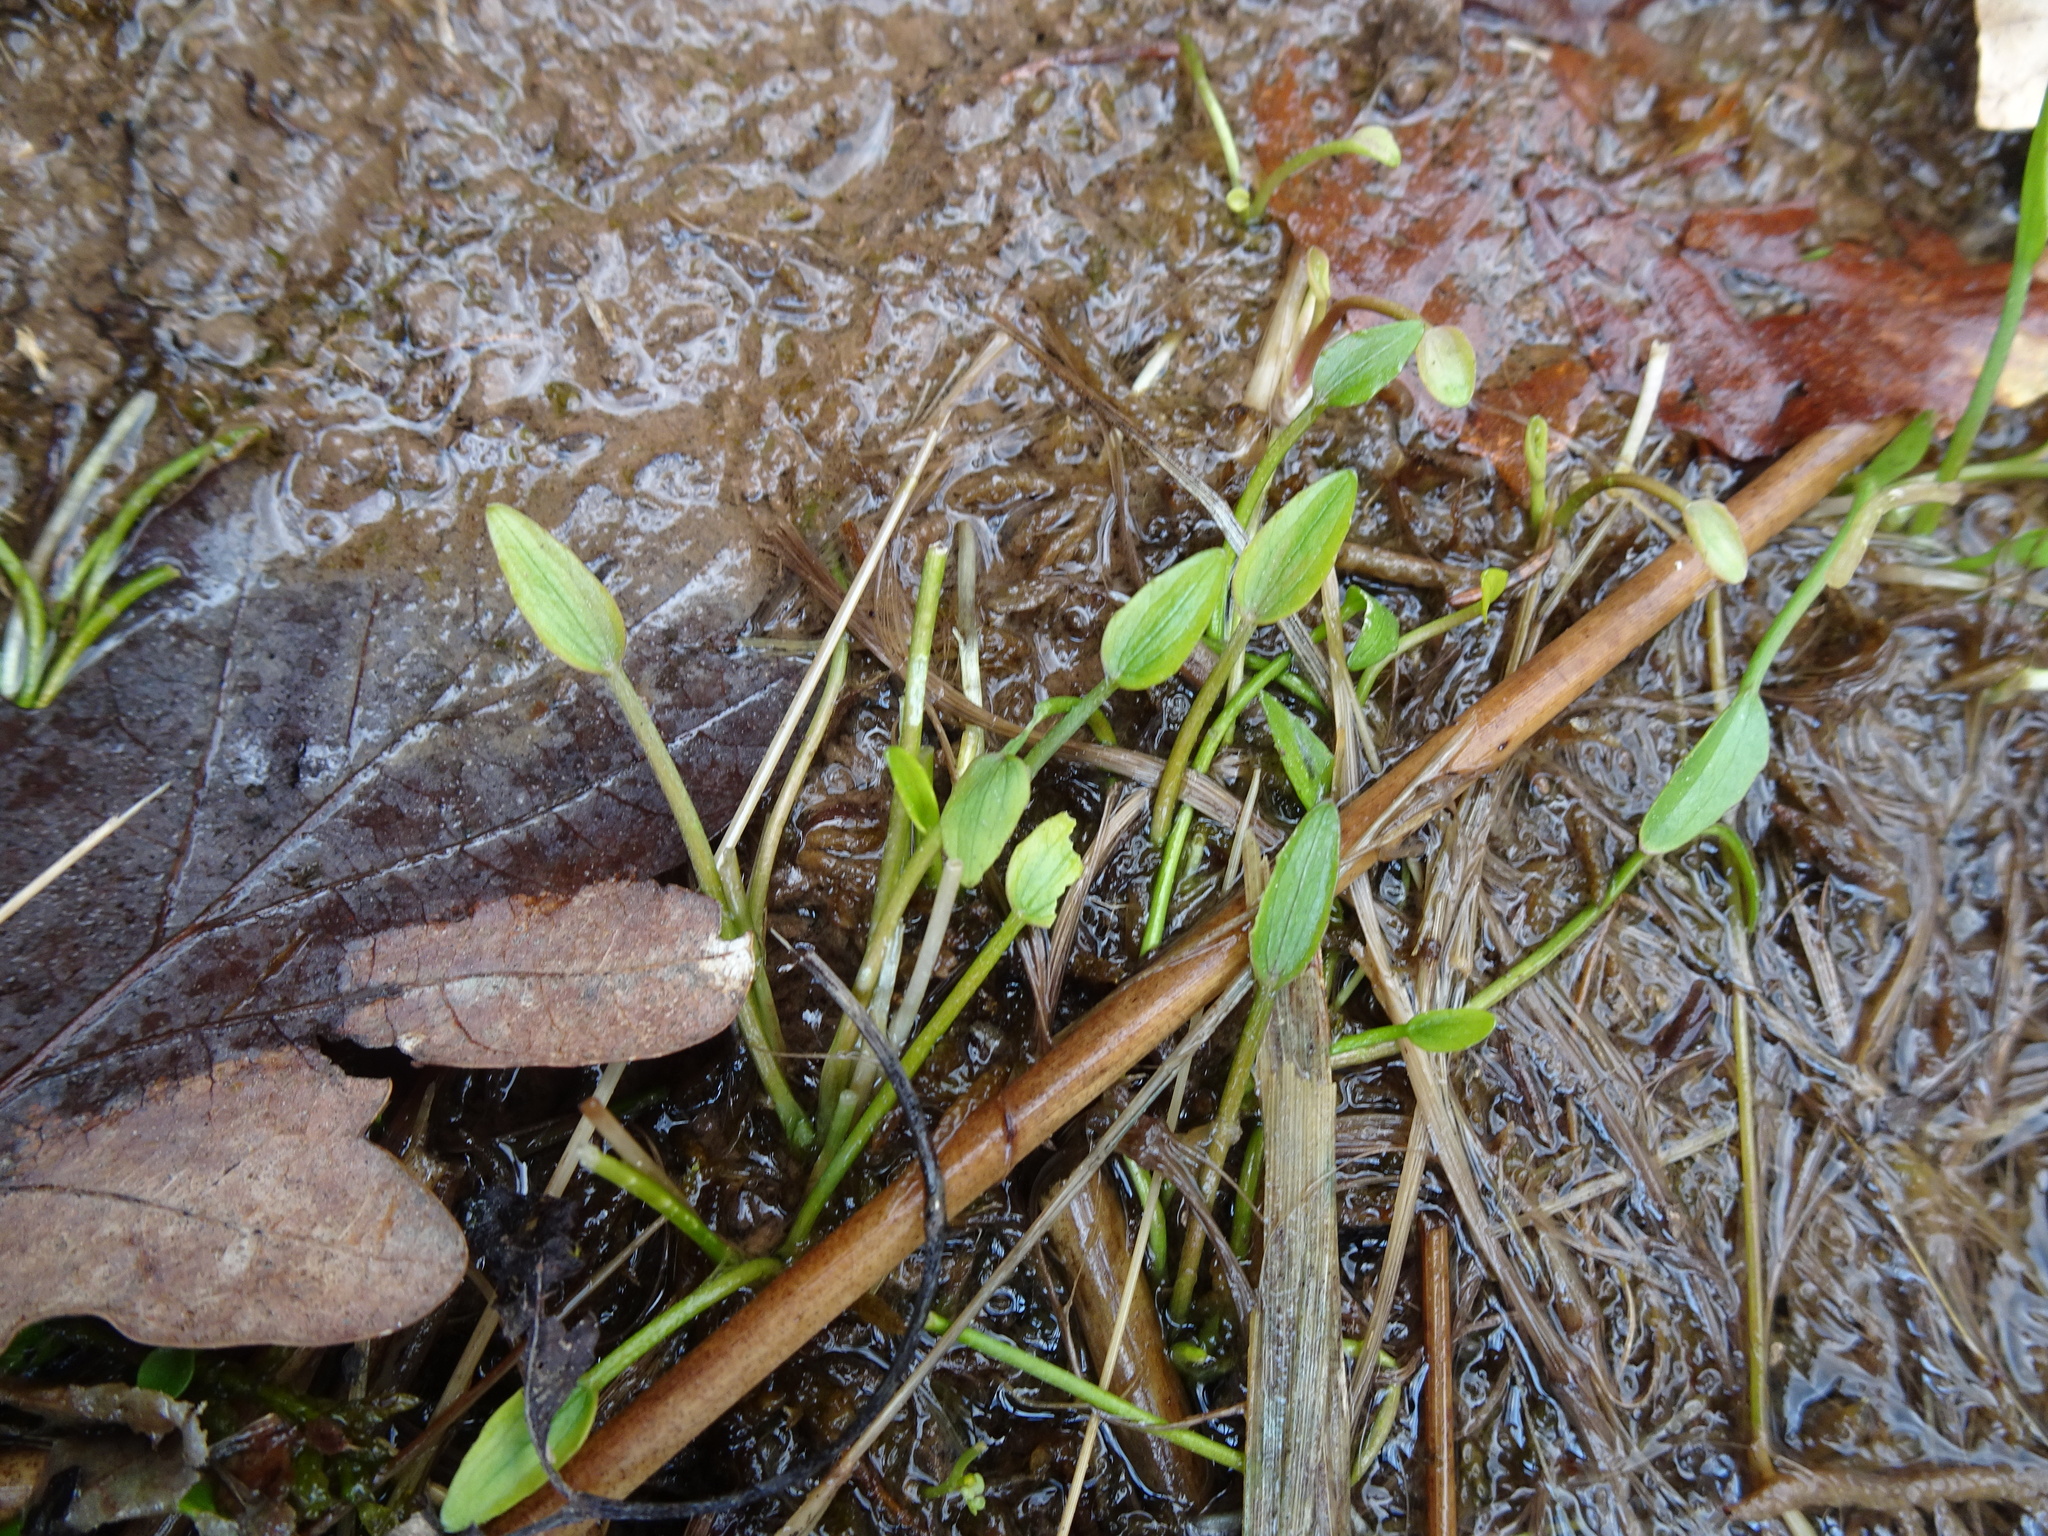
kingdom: Plantae
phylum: Tracheophyta
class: Magnoliopsida
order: Ranunculales
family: Ranunculaceae
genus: Ranunculus
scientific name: Ranunculus flammula
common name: Lesser spearwort
